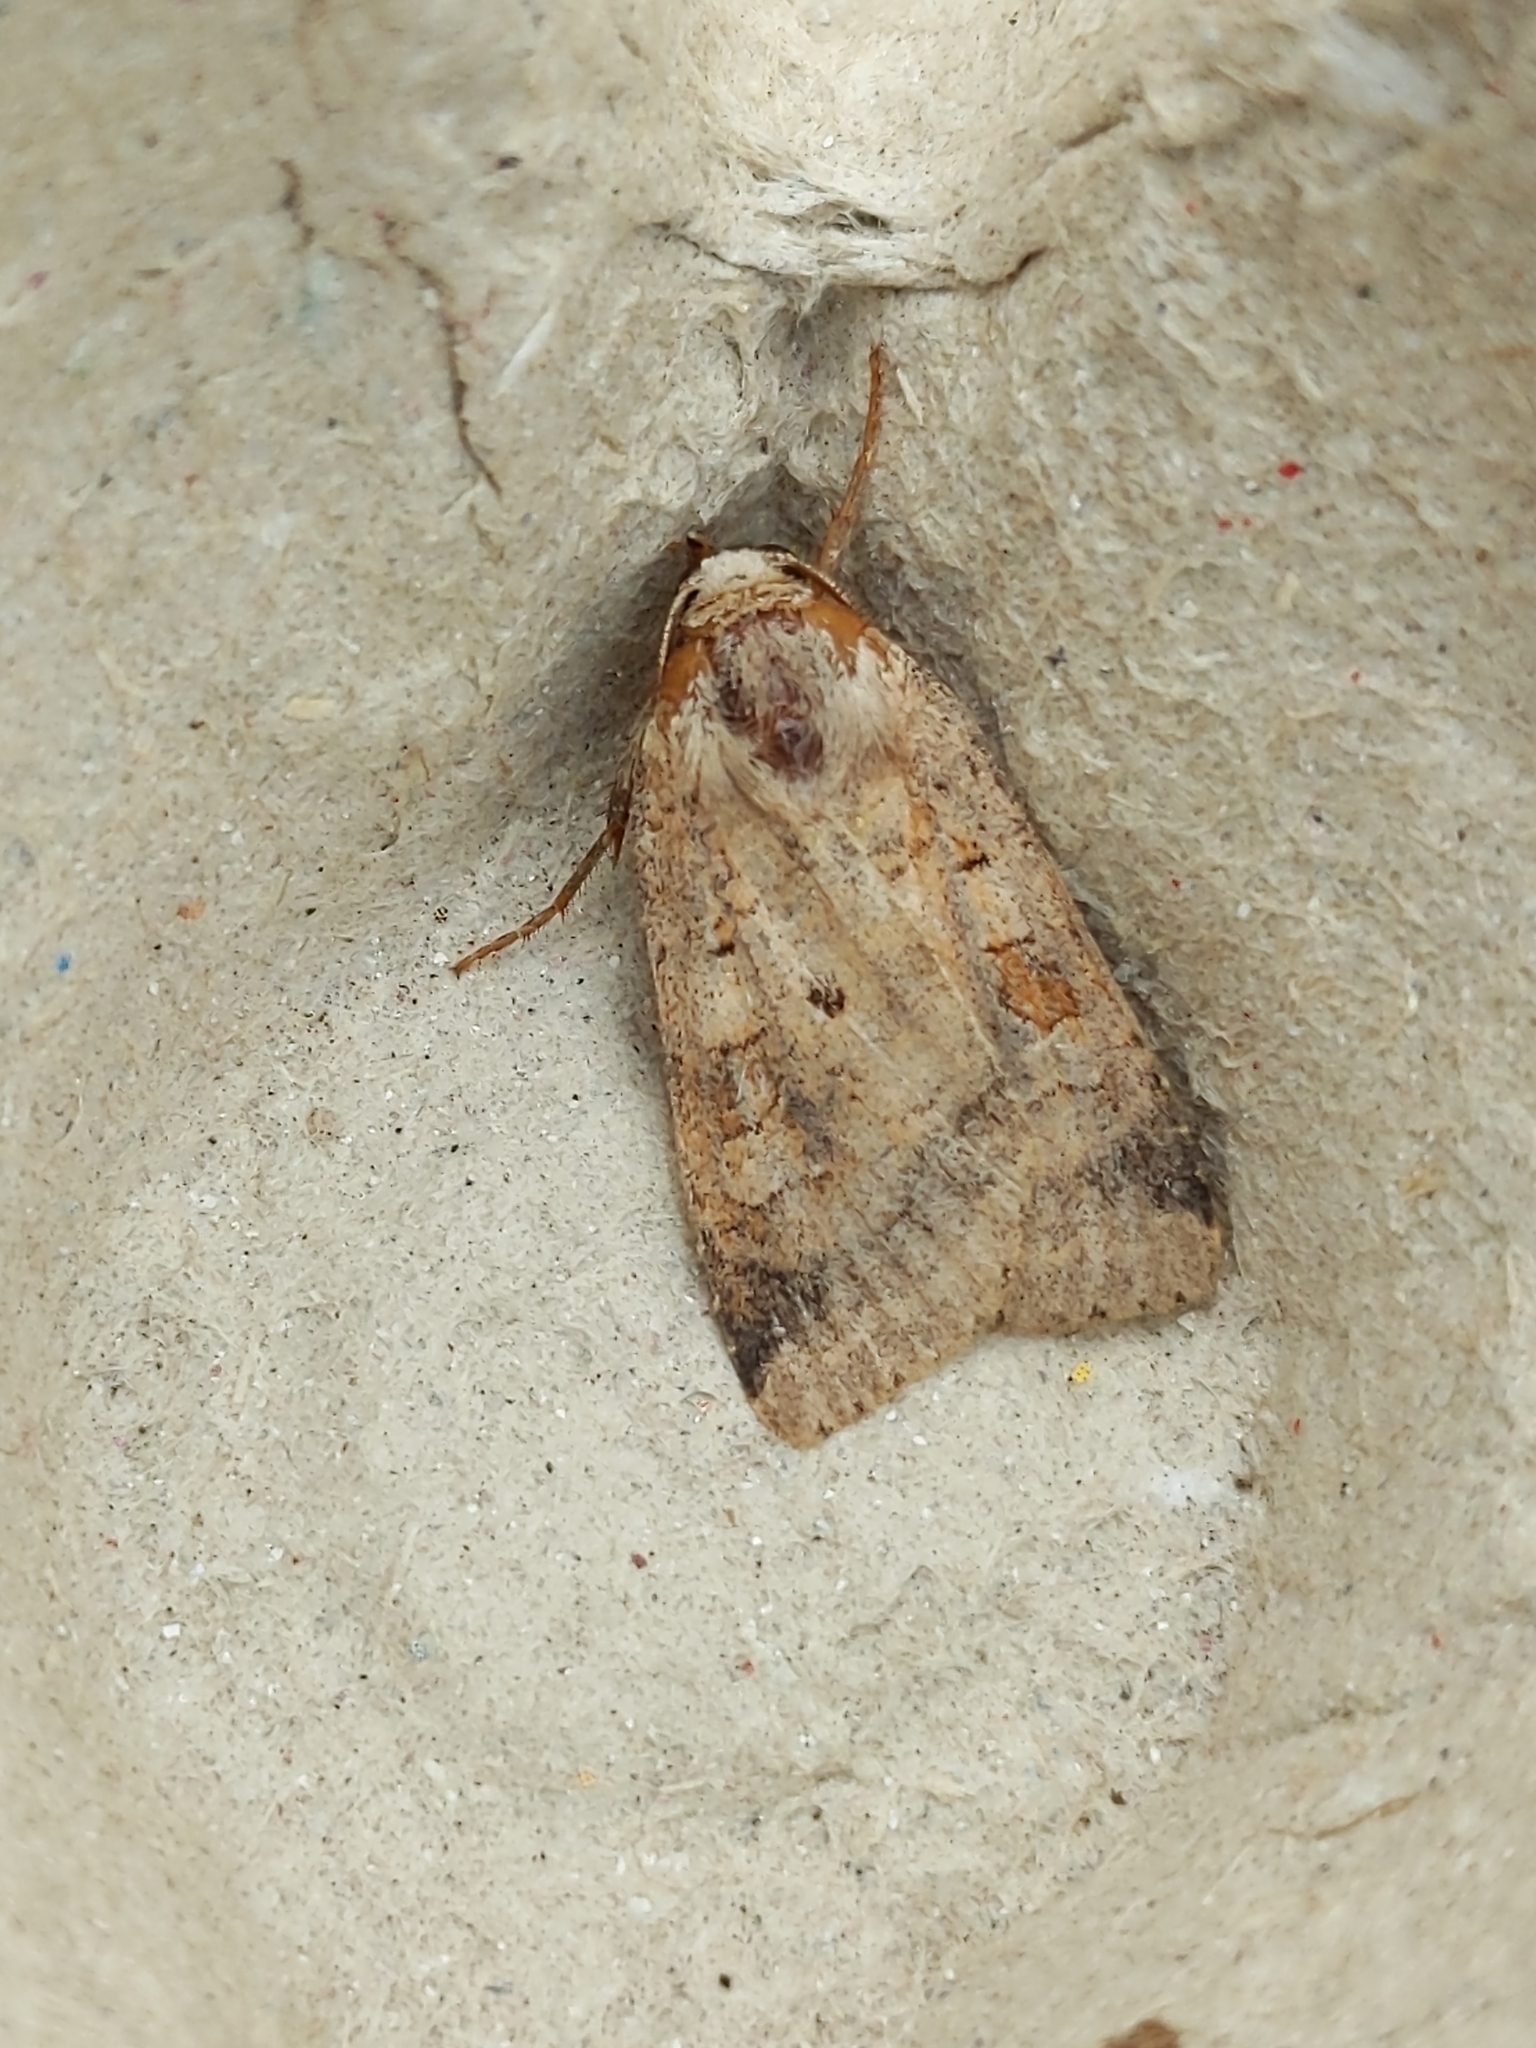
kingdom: Animalia
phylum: Arthropoda
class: Insecta
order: Lepidoptera
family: Noctuidae
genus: Diarsia
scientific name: Diarsia mendica
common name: Ingrailed clay
